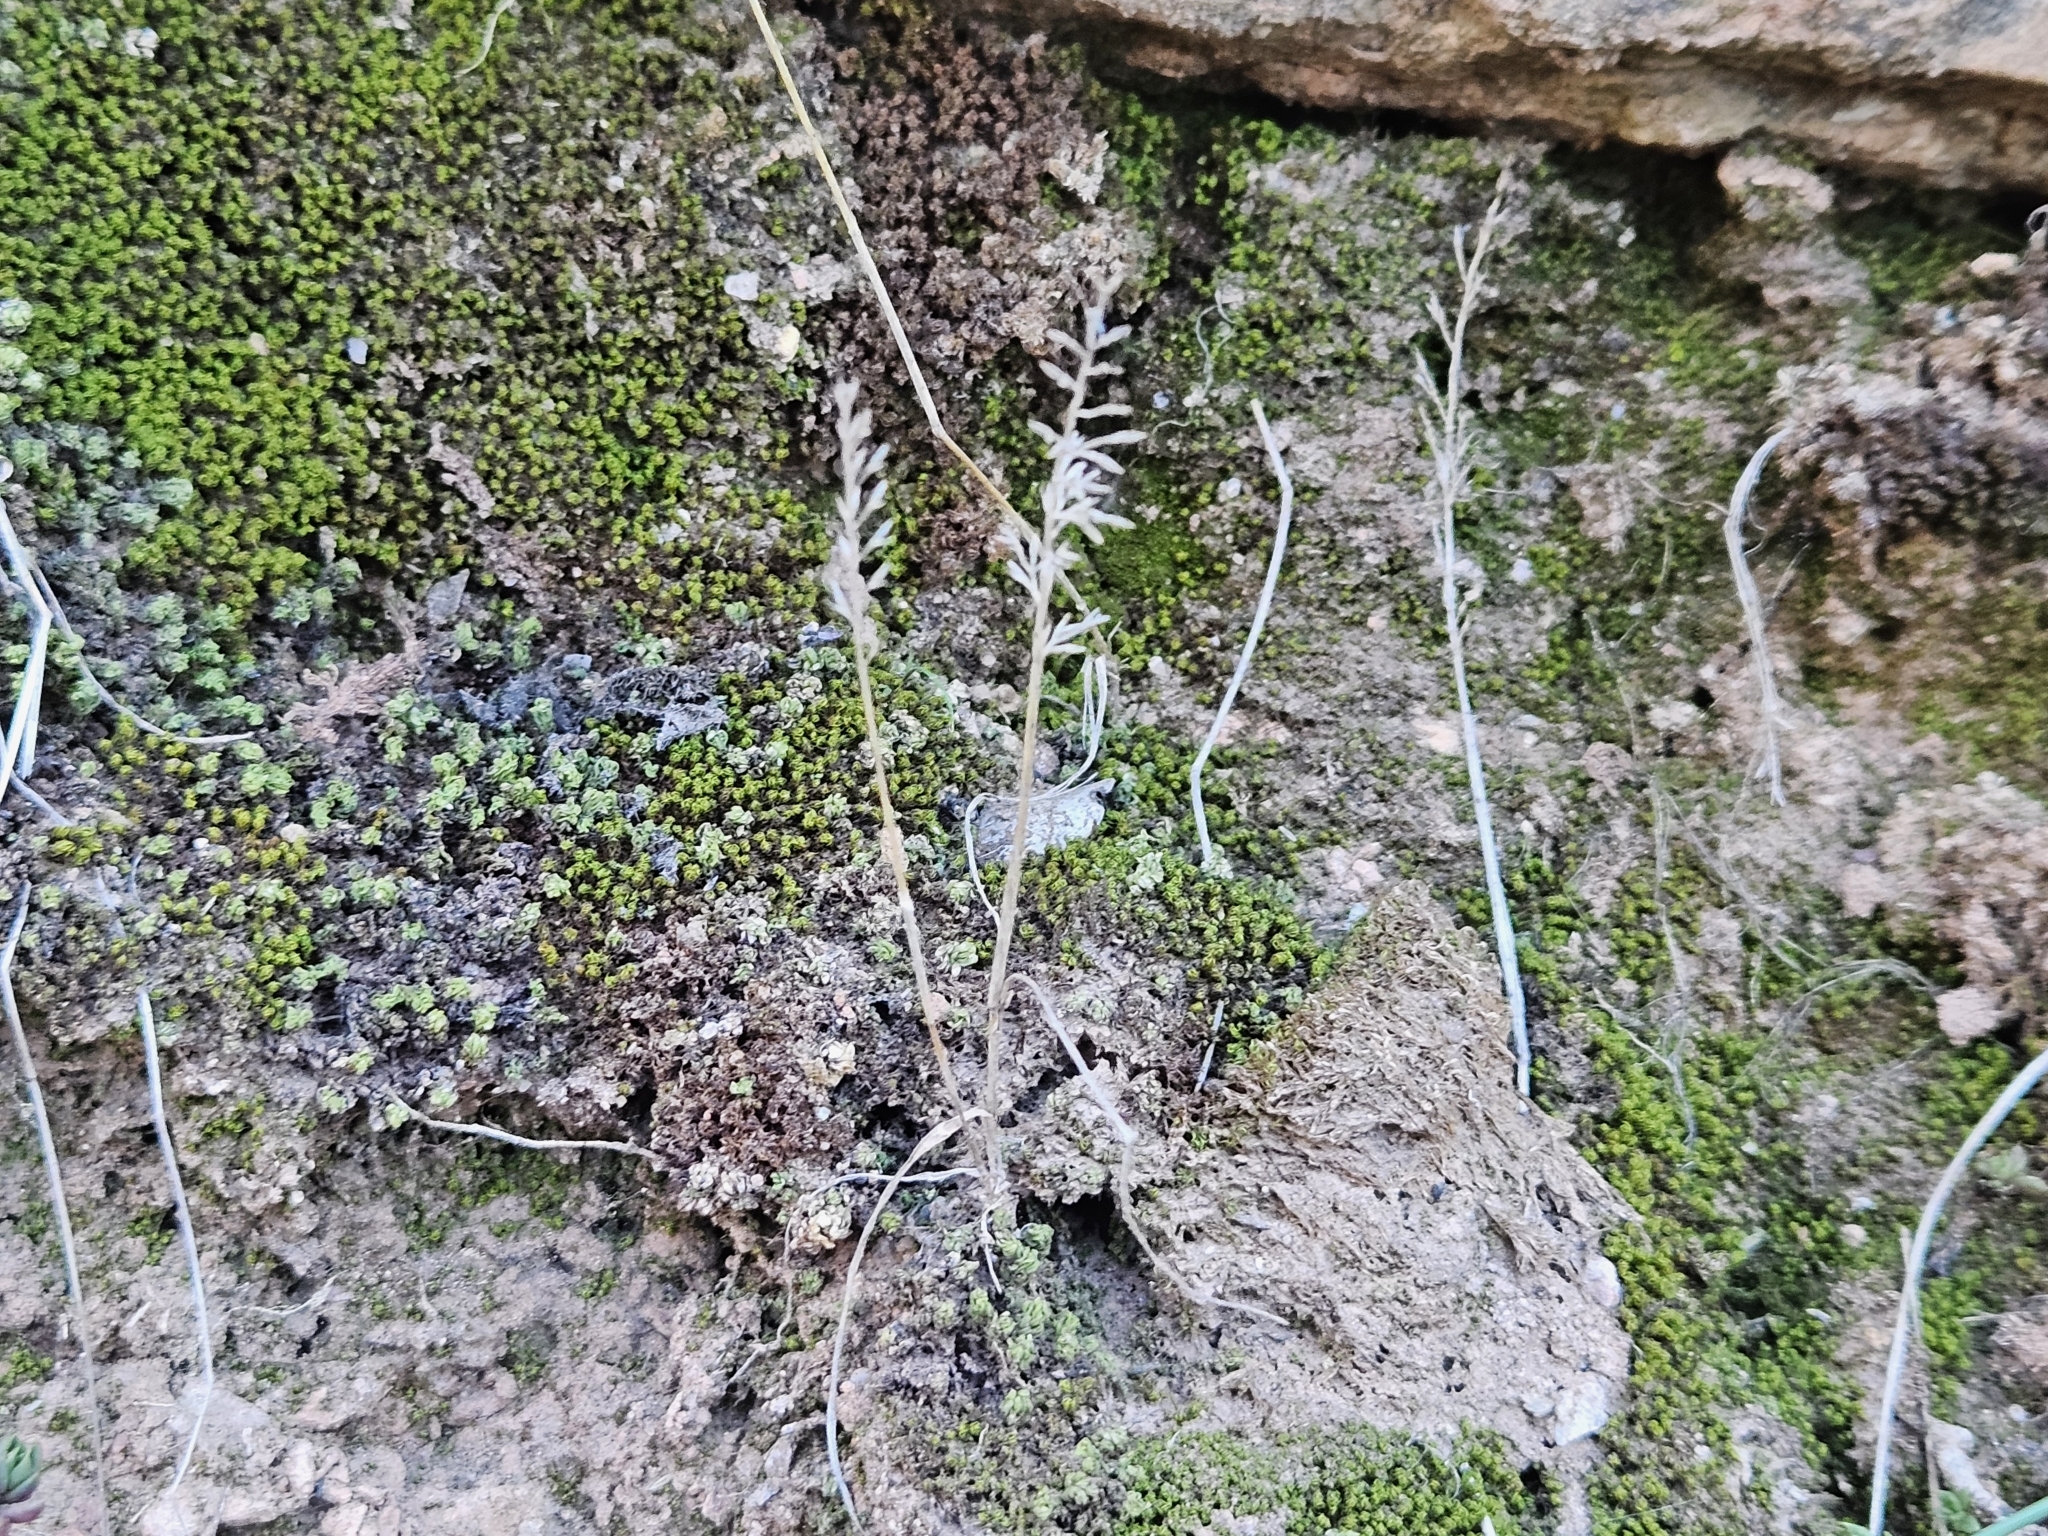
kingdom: Plantae
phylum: Tracheophyta
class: Liliopsida
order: Poales
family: Poaceae
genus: Catapodium
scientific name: Catapodium rigidum
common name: Fern-grass
